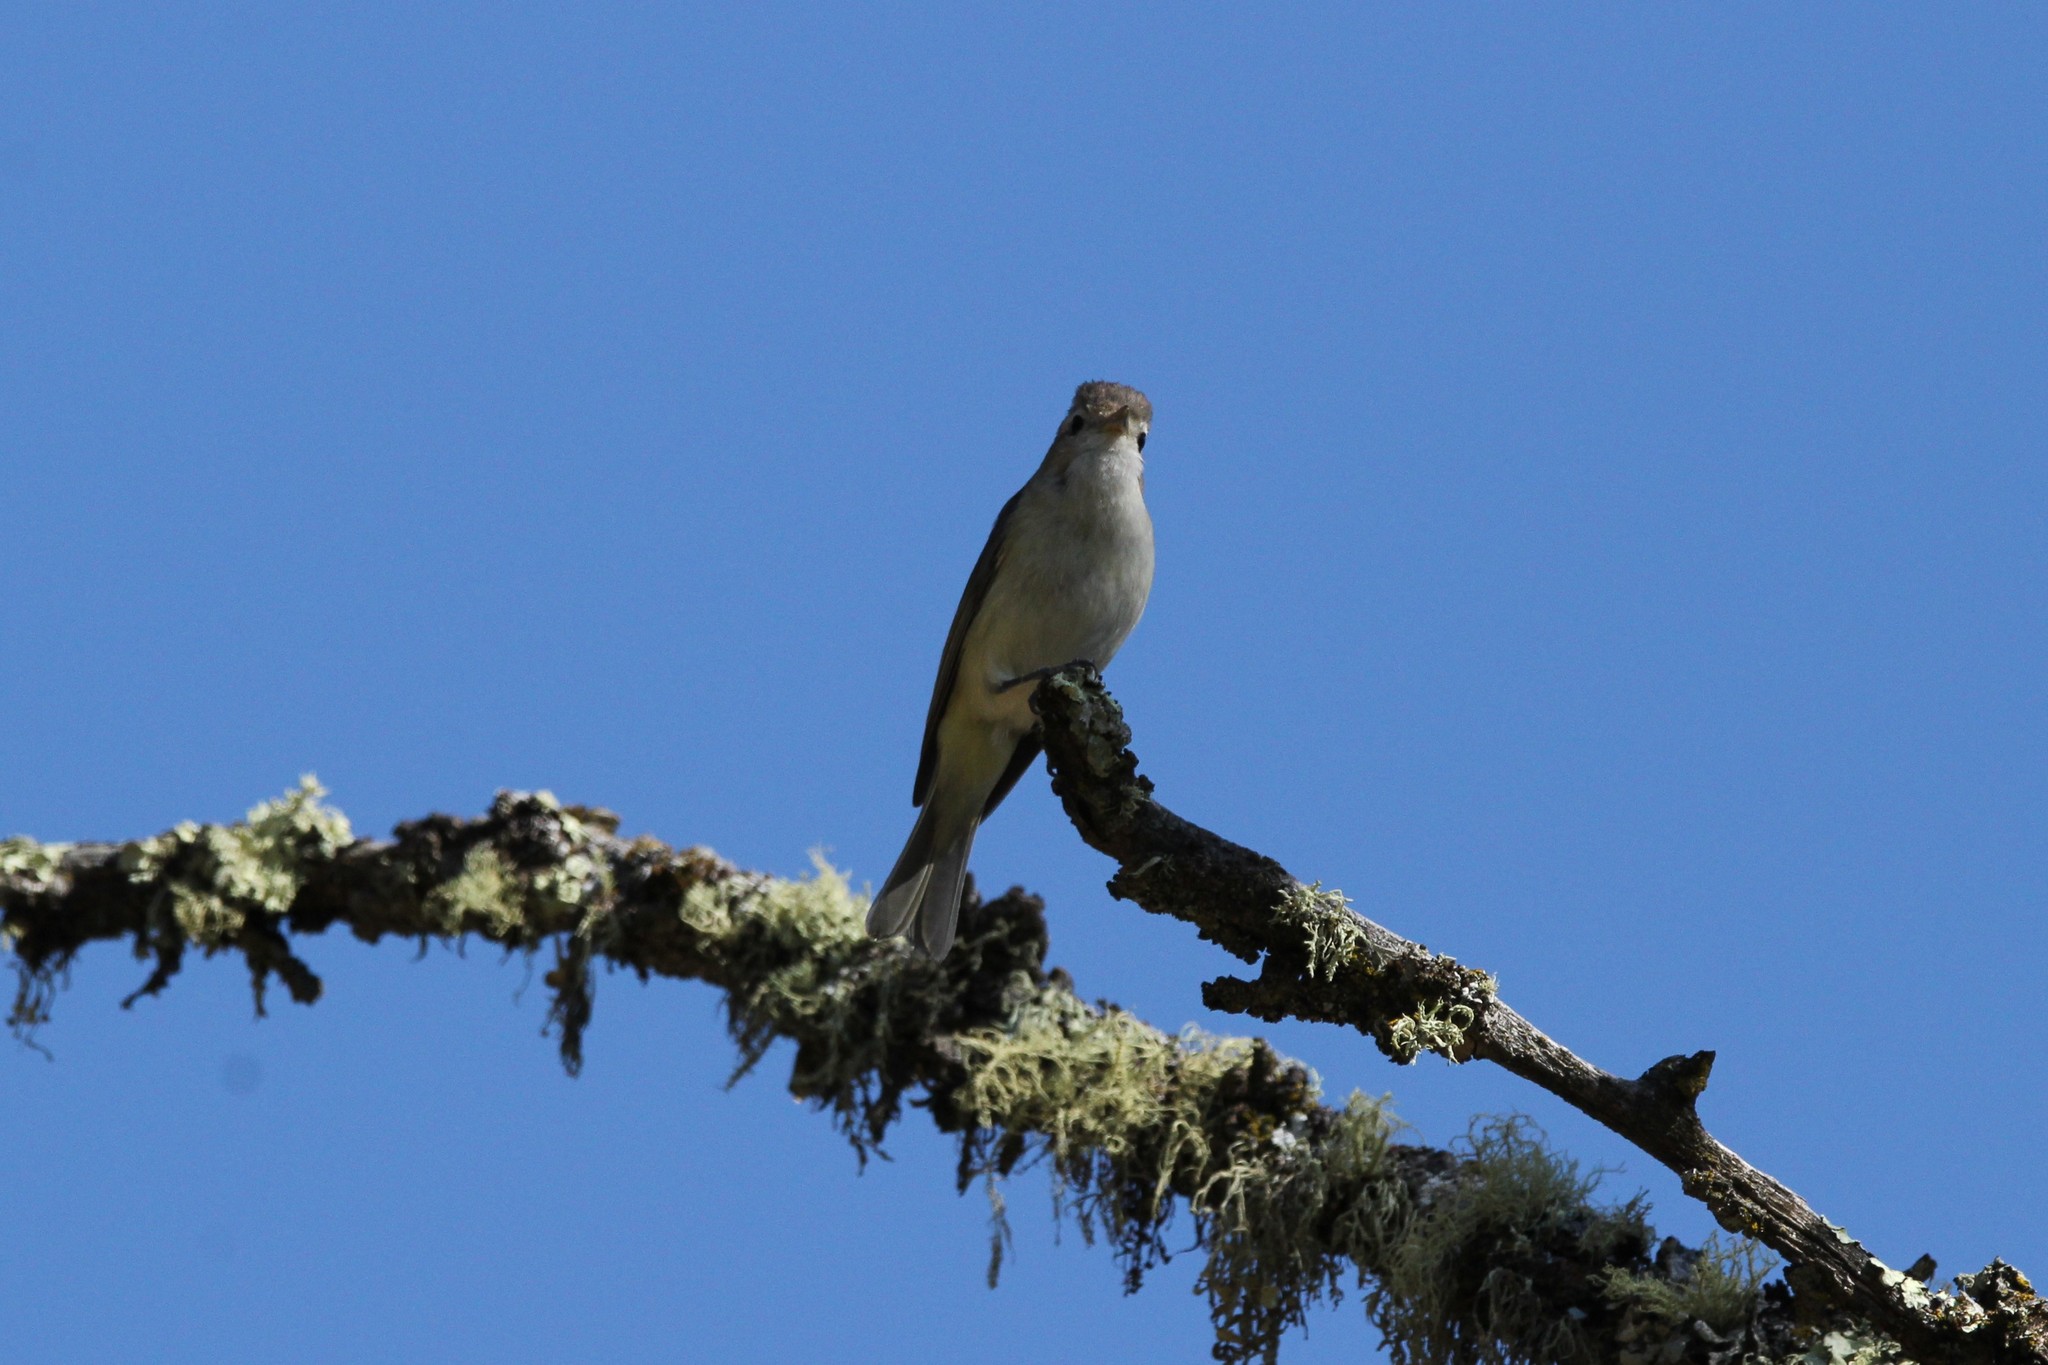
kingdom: Animalia
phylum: Chordata
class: Aves
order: Passeriformes
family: Vireonidae
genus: Vireo
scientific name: Vireo gilvus
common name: Warbling vireo
